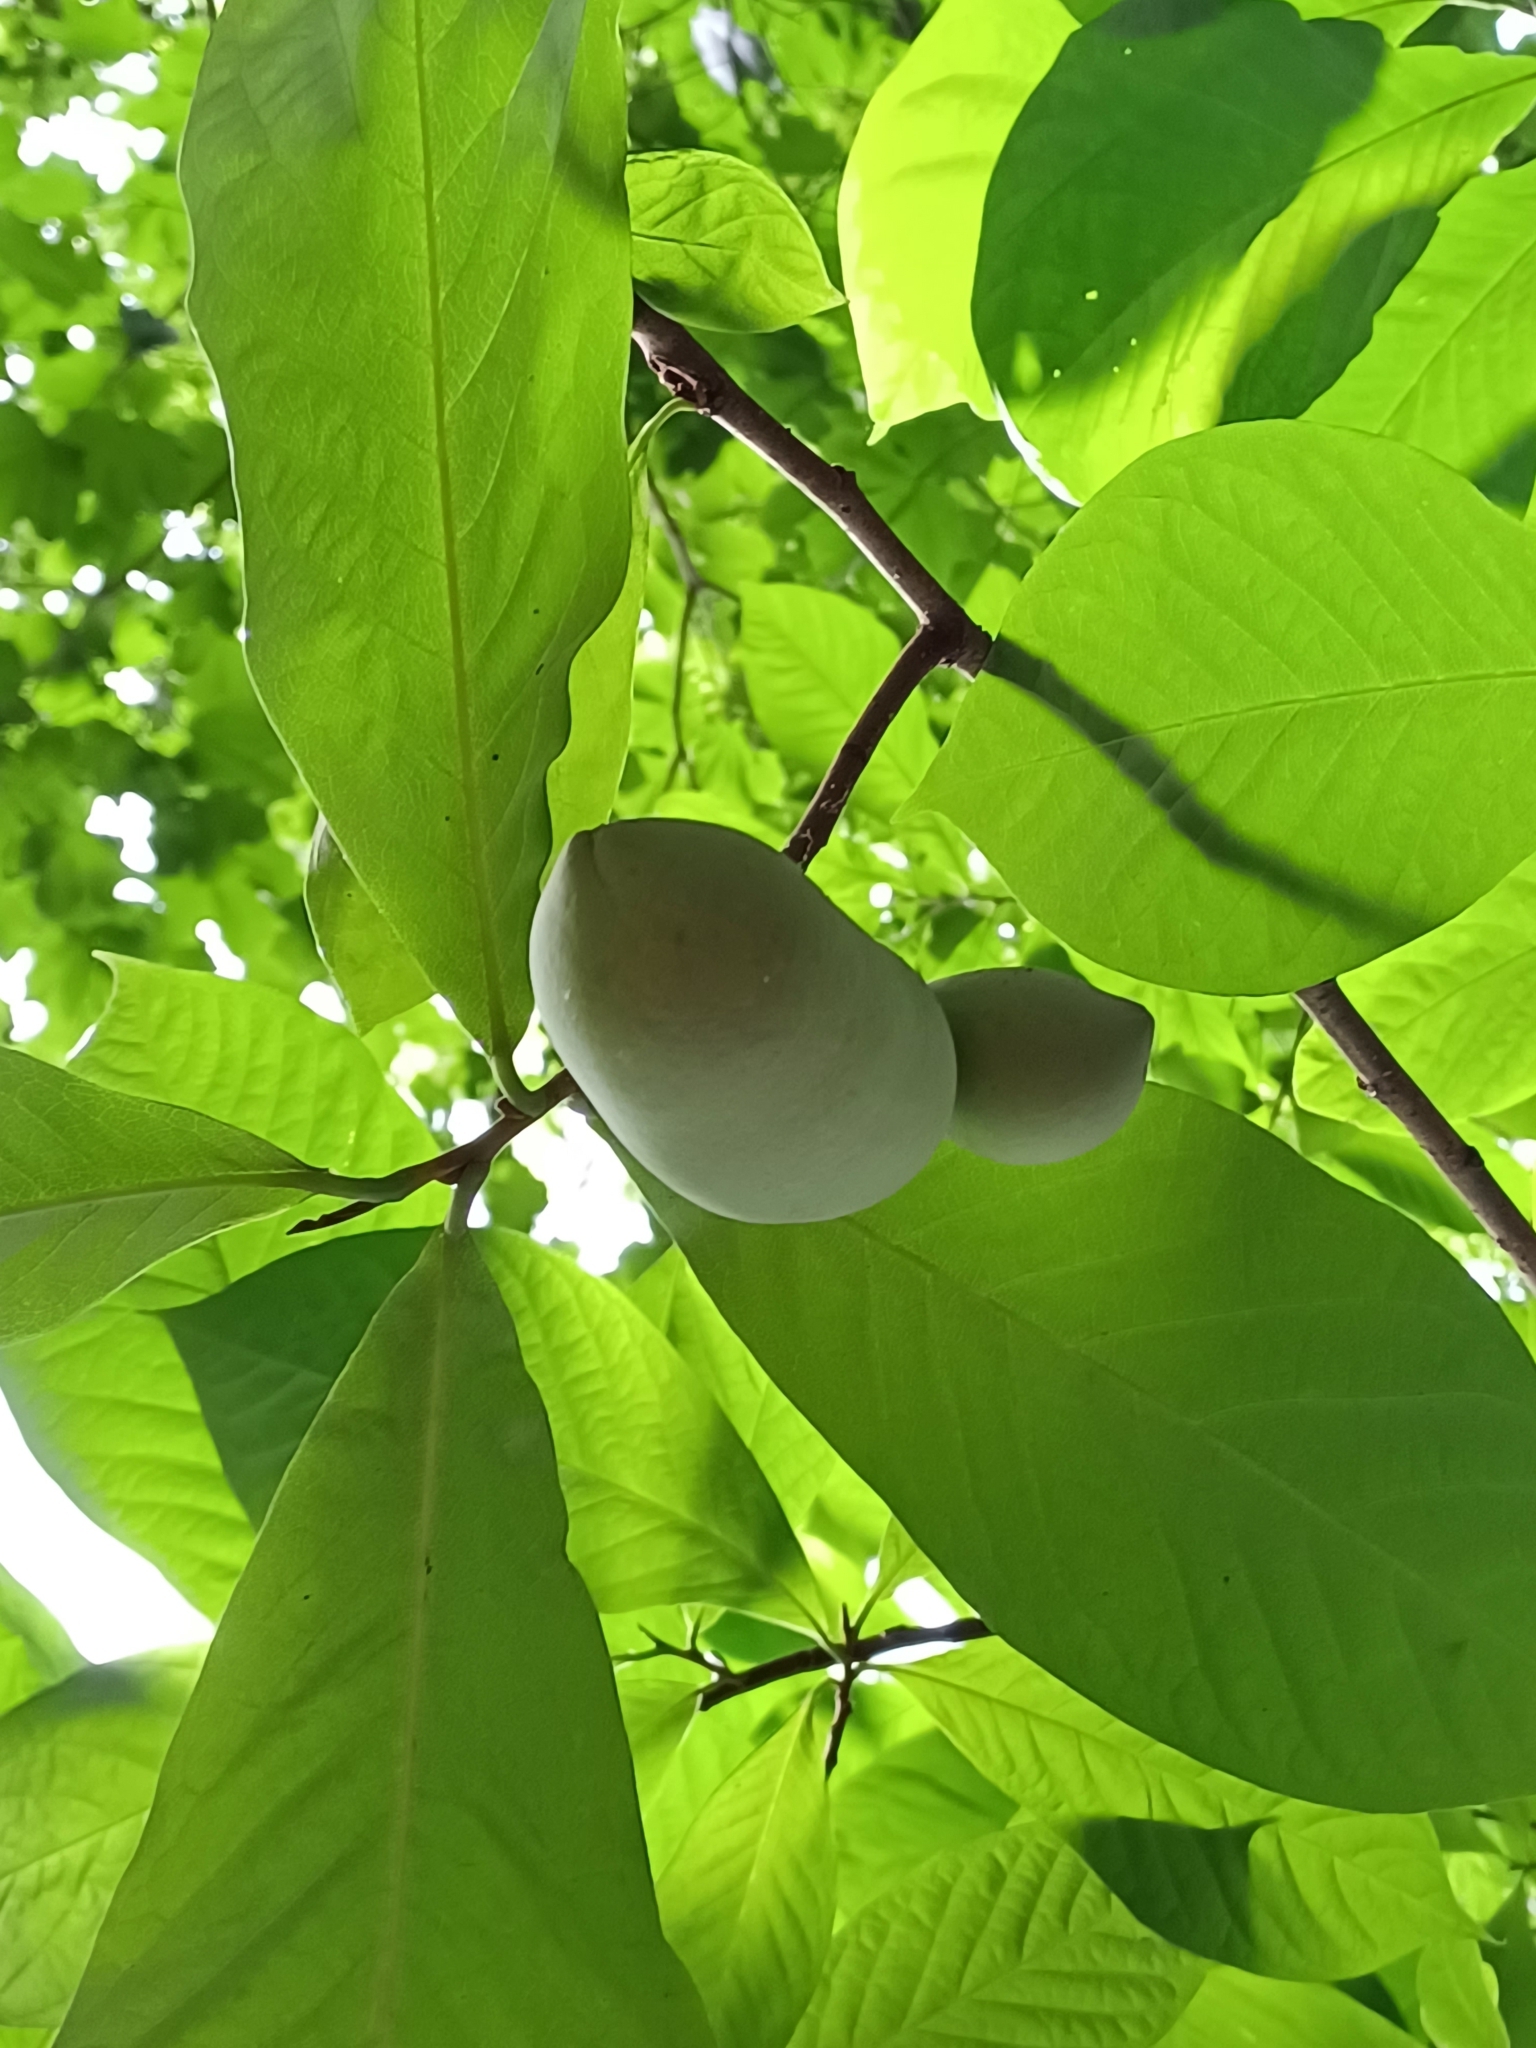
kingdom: Plantae
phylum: Tracheophyta
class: Magnoliopsida
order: Magnoliales
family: Annonaceae
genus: Asimina
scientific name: Asimina triloba
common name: Dog-banana
